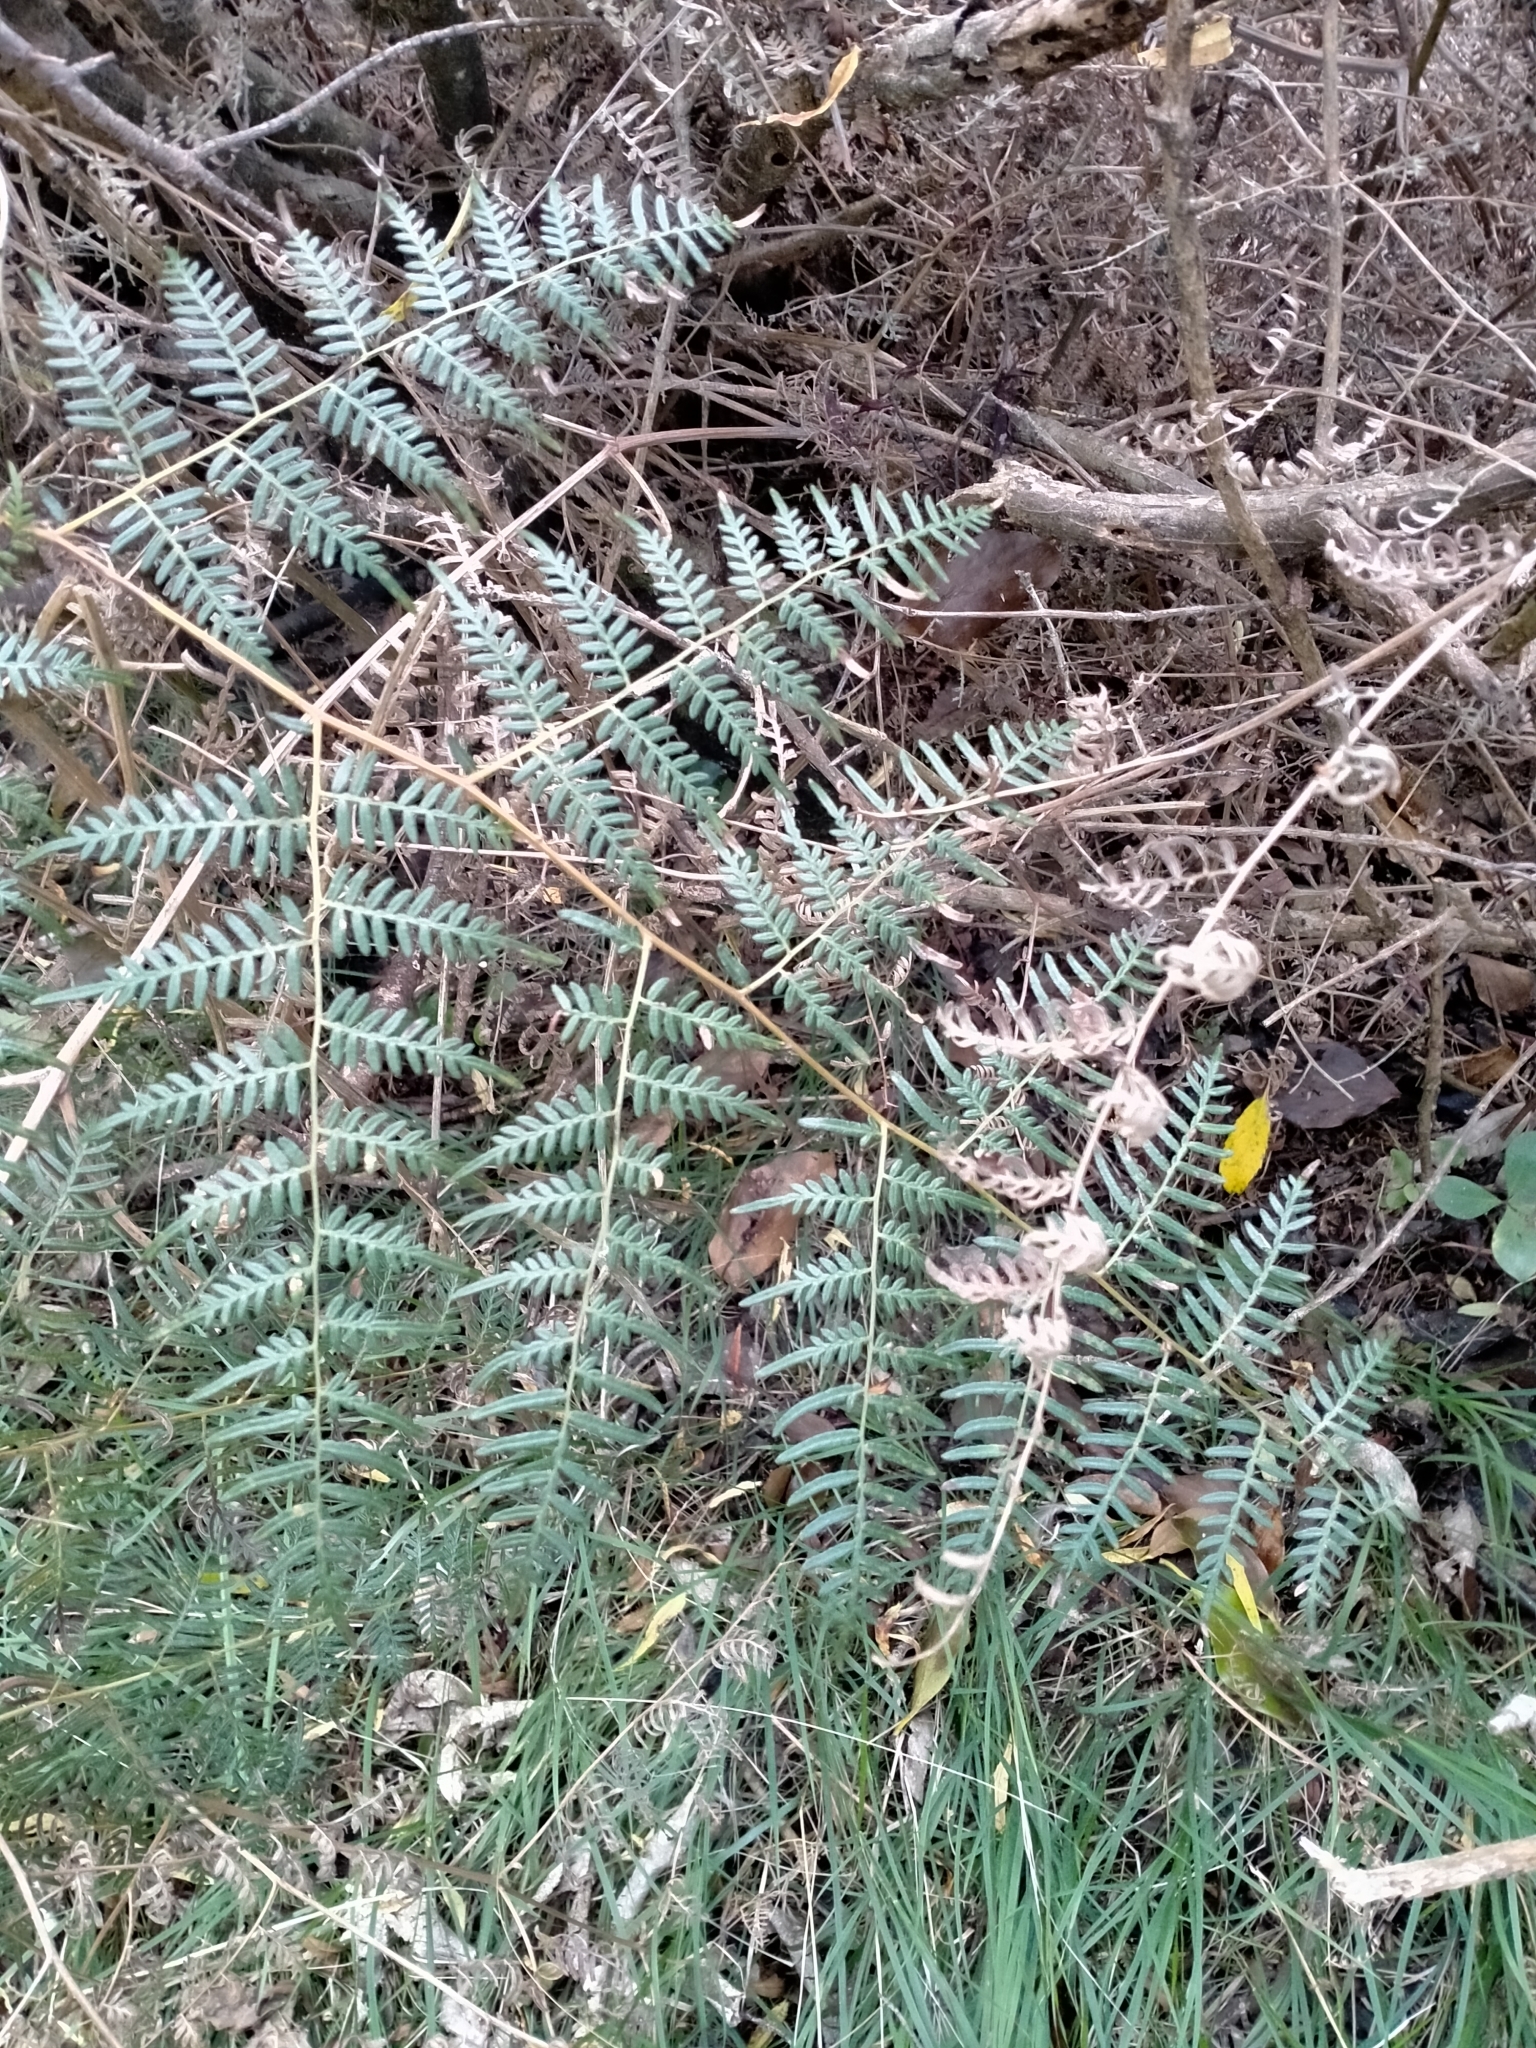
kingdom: Plantae
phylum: Tracheophyta
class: Polypodiopsida
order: Polypodiales
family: Dennstaedtiaceae
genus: Pteridium
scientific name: Pteridium esculentum
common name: Bracken fern
